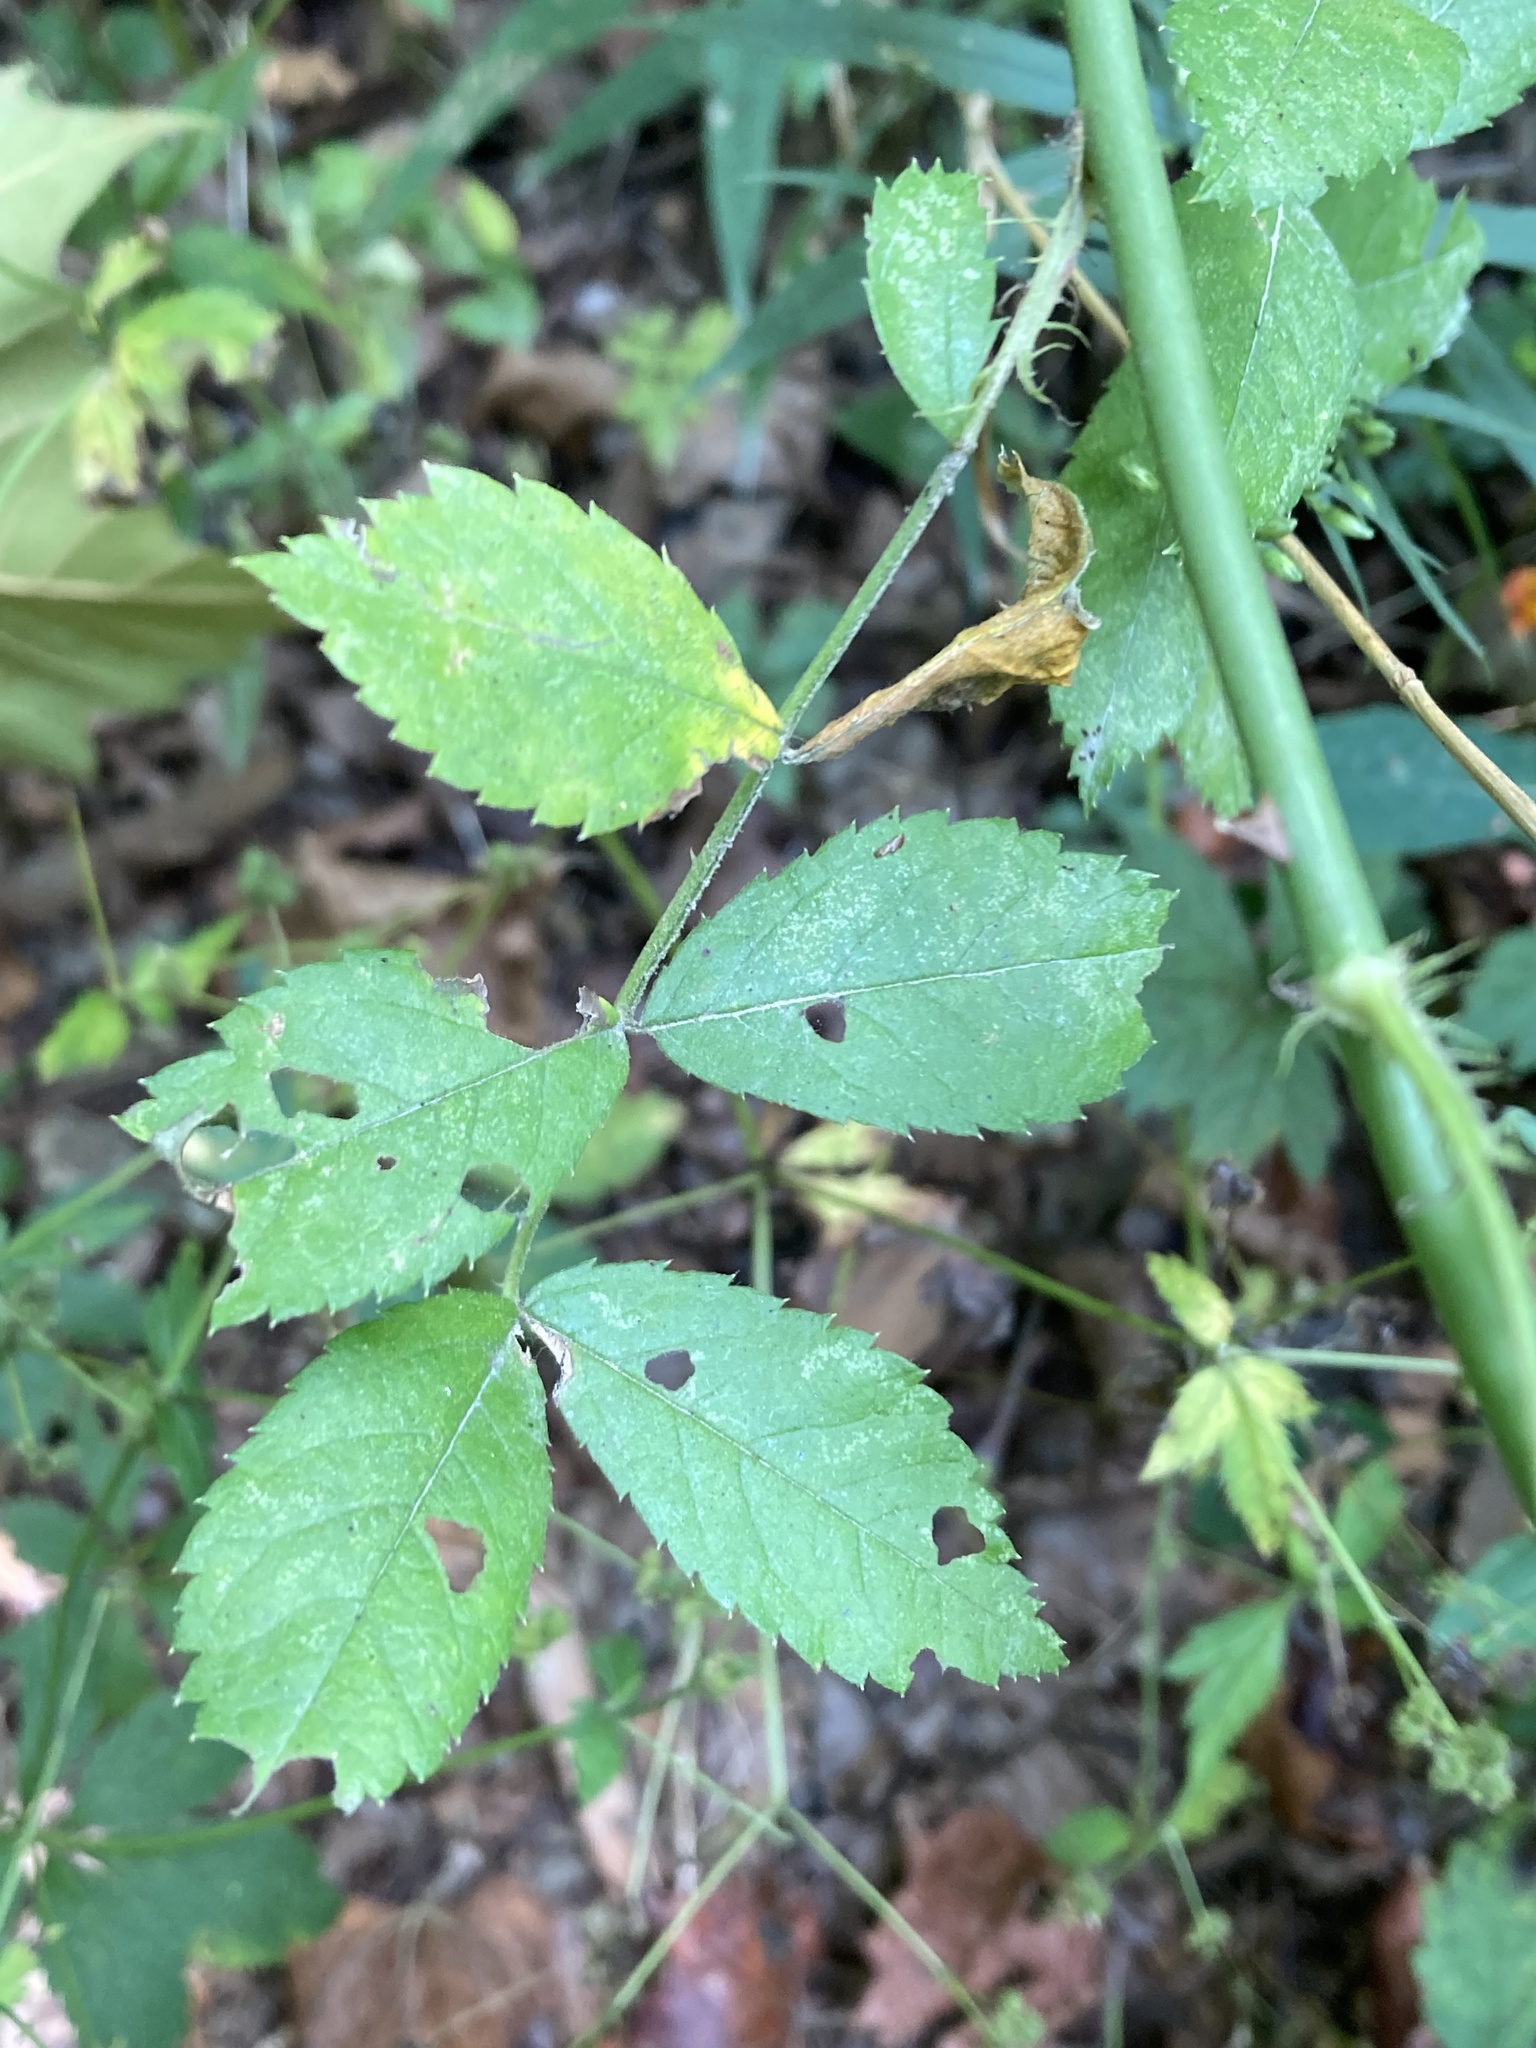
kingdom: Plantae
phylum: Tracheophyta
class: Magnoliopsida
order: Rosales
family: Rosaceae
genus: Rosa
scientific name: Rosa multiflora
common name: Multiflora rose
